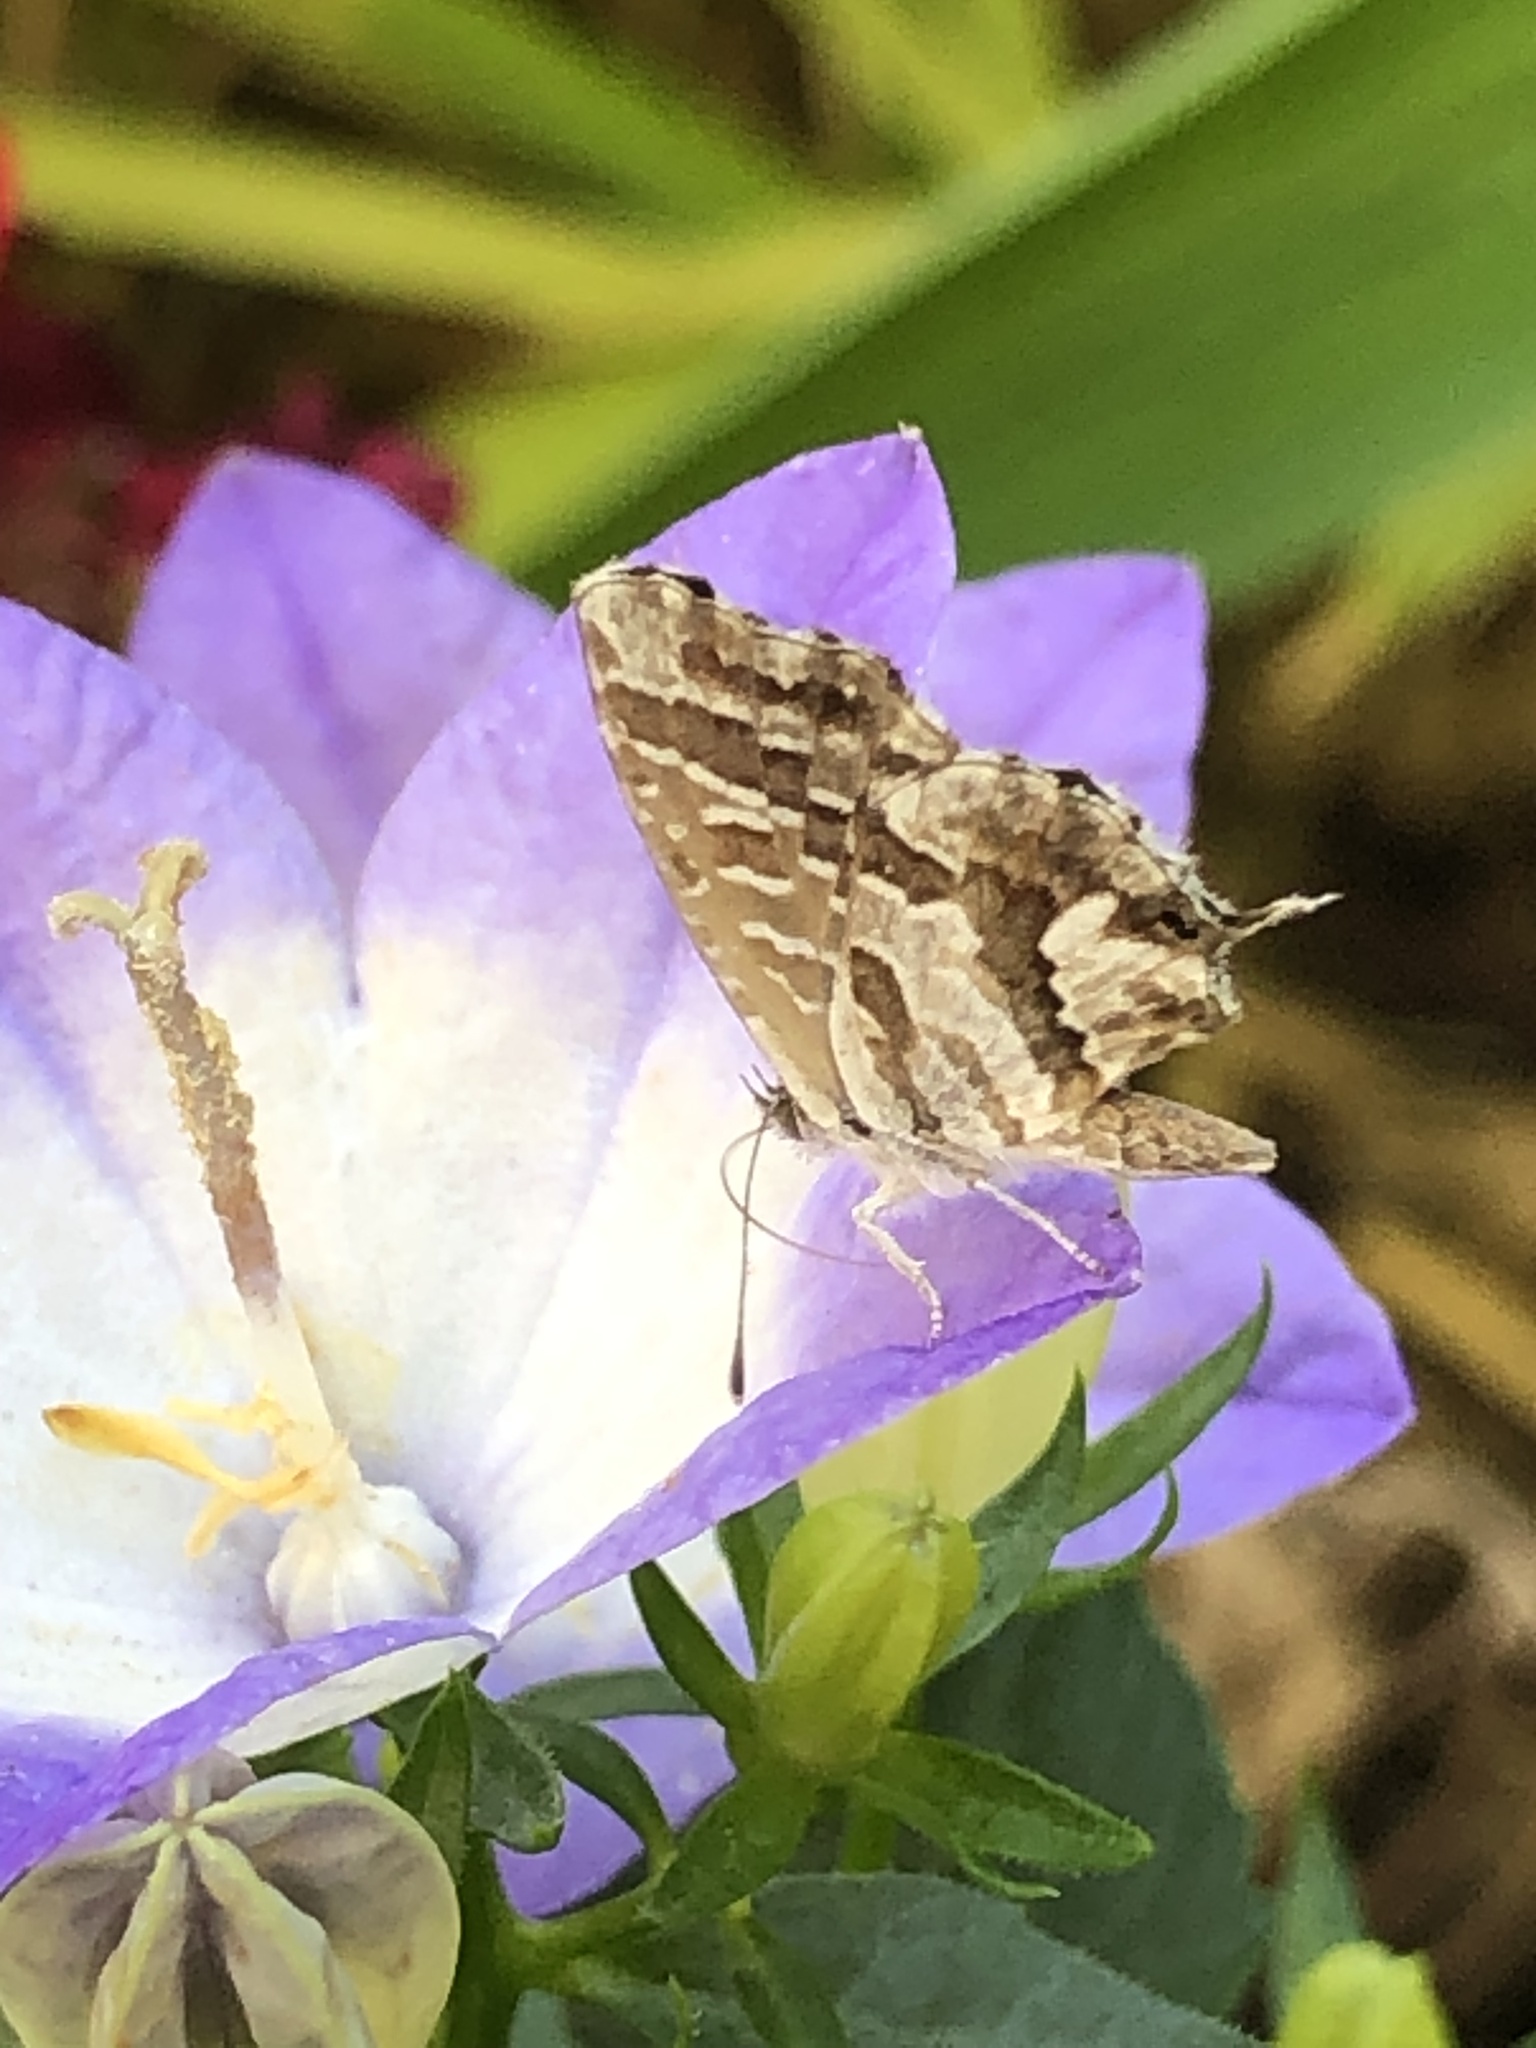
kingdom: Animalia
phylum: Arthropoda
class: Insecta
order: Lepidoptera
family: Lycaenidae
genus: Cacyreus
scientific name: Cacyreus marshalli
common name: Geranium bronze
